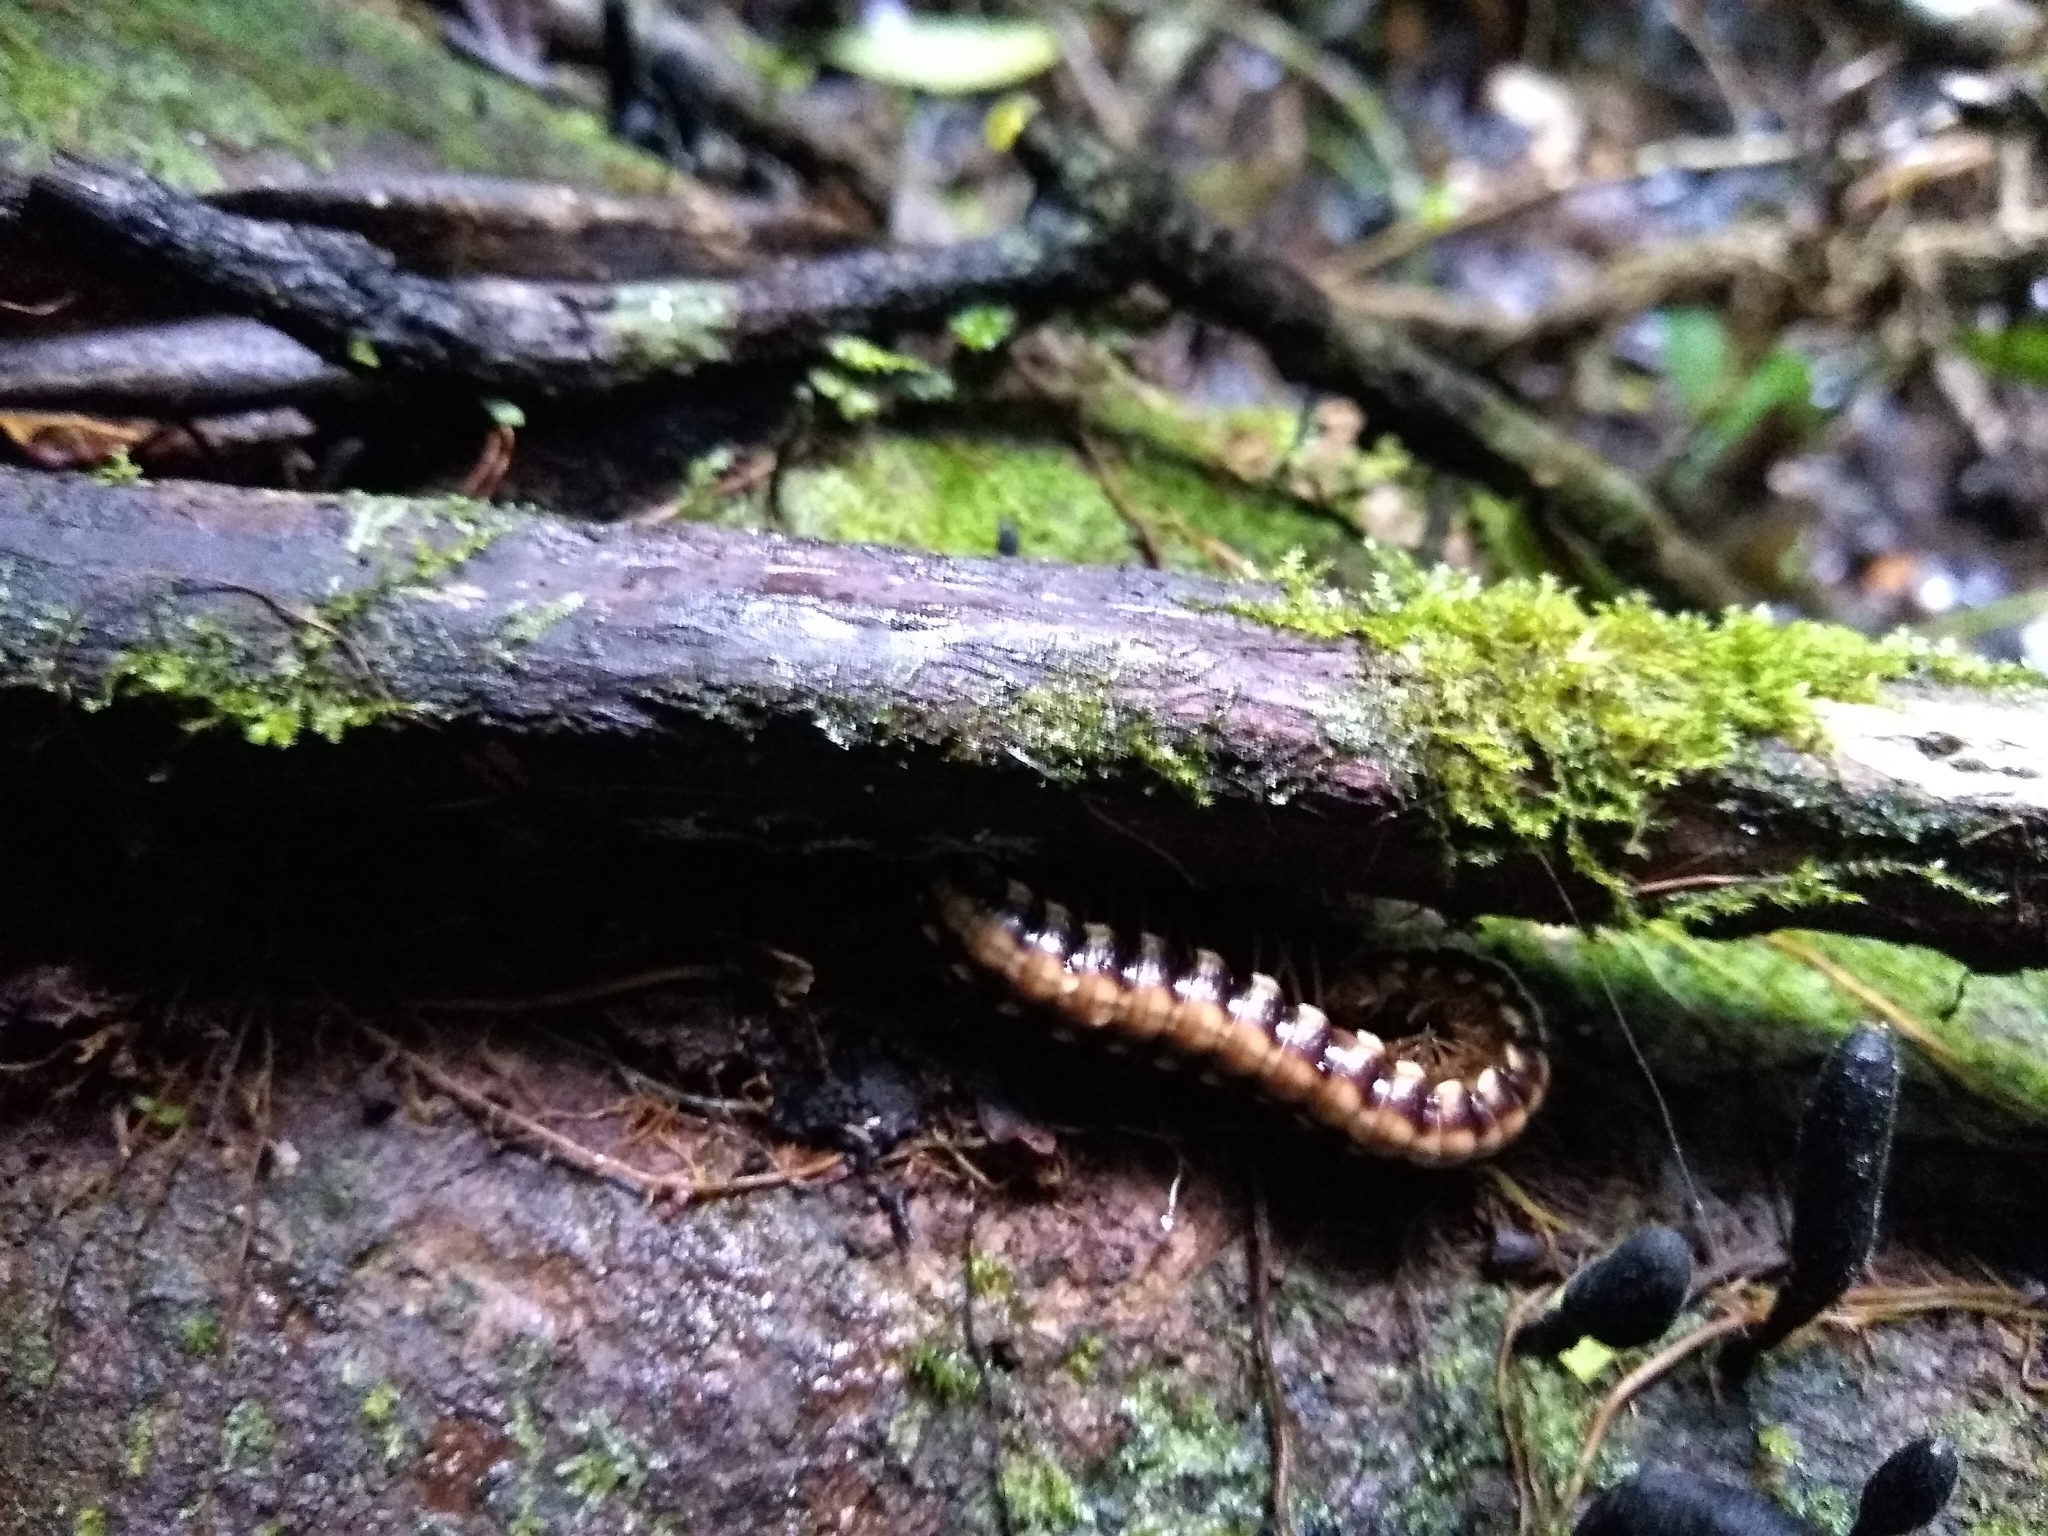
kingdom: Animalia
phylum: Arthropoda
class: Diplopoda
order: Polydesmida
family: Platyrhacidae
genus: Nyssodesmus
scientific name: Nyssodesmus python
